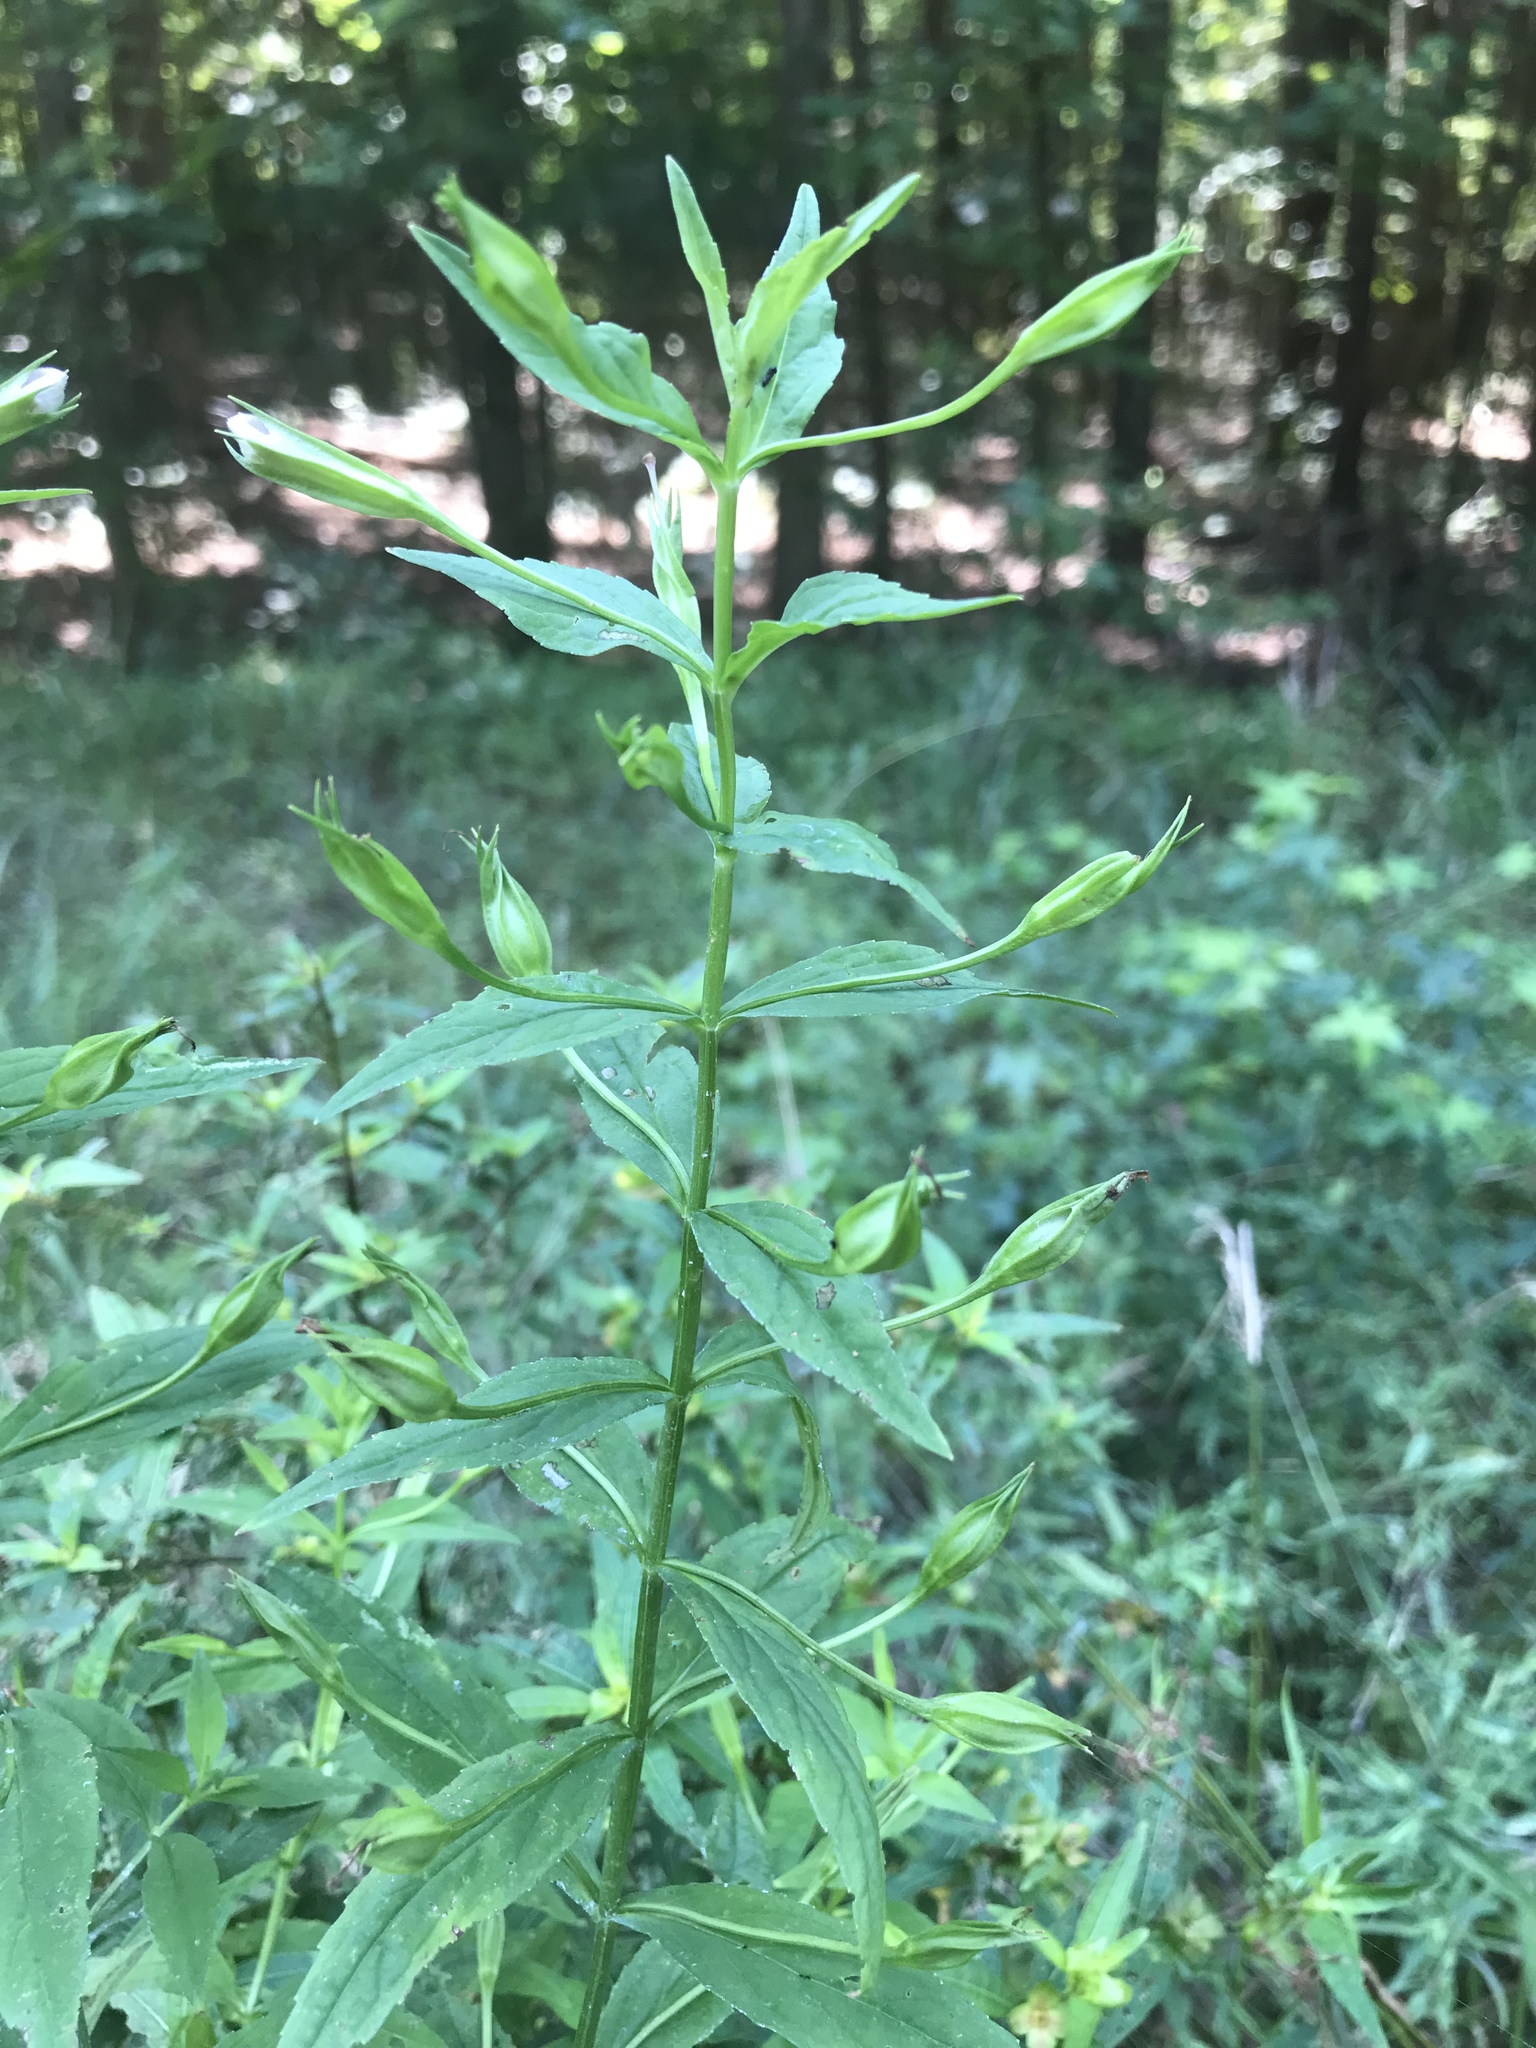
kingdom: Plantae
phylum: Tracheophyta
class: Magnoliopsida
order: Lamiales
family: Phrymaceae
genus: Mimulus
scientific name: Mimulus ringens
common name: Allegheny monkeyflower
